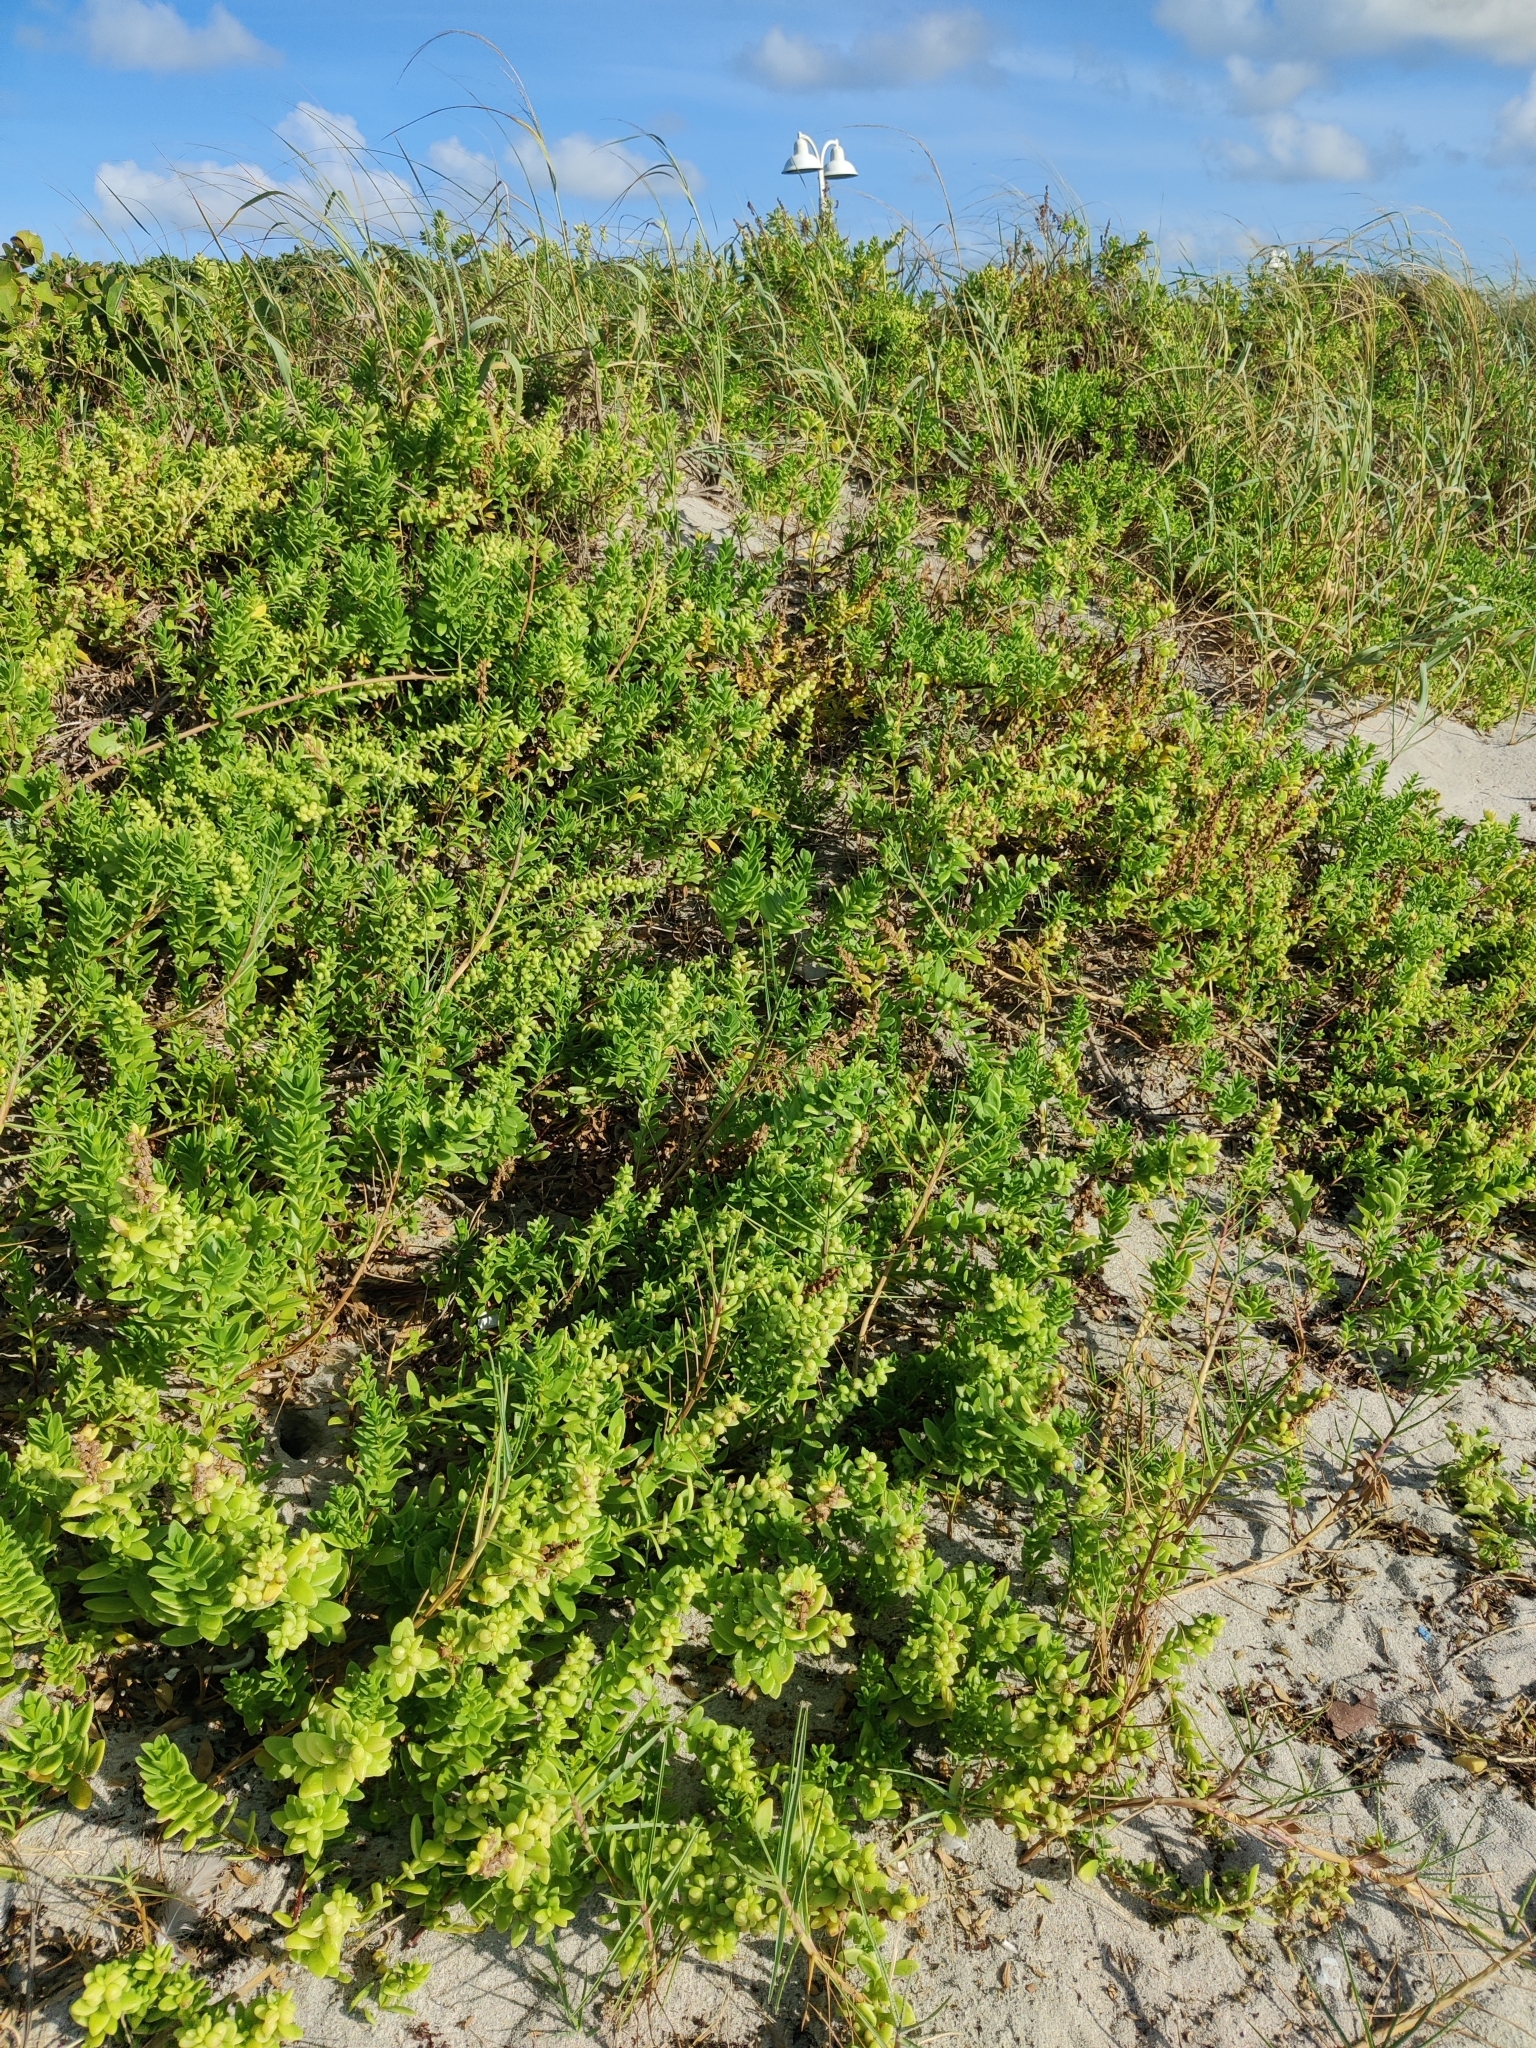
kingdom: Plantae
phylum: Tracheophyta
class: Magnoliopsida
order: Asterales
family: Asteraceae
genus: Iva
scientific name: Iva imbricata
